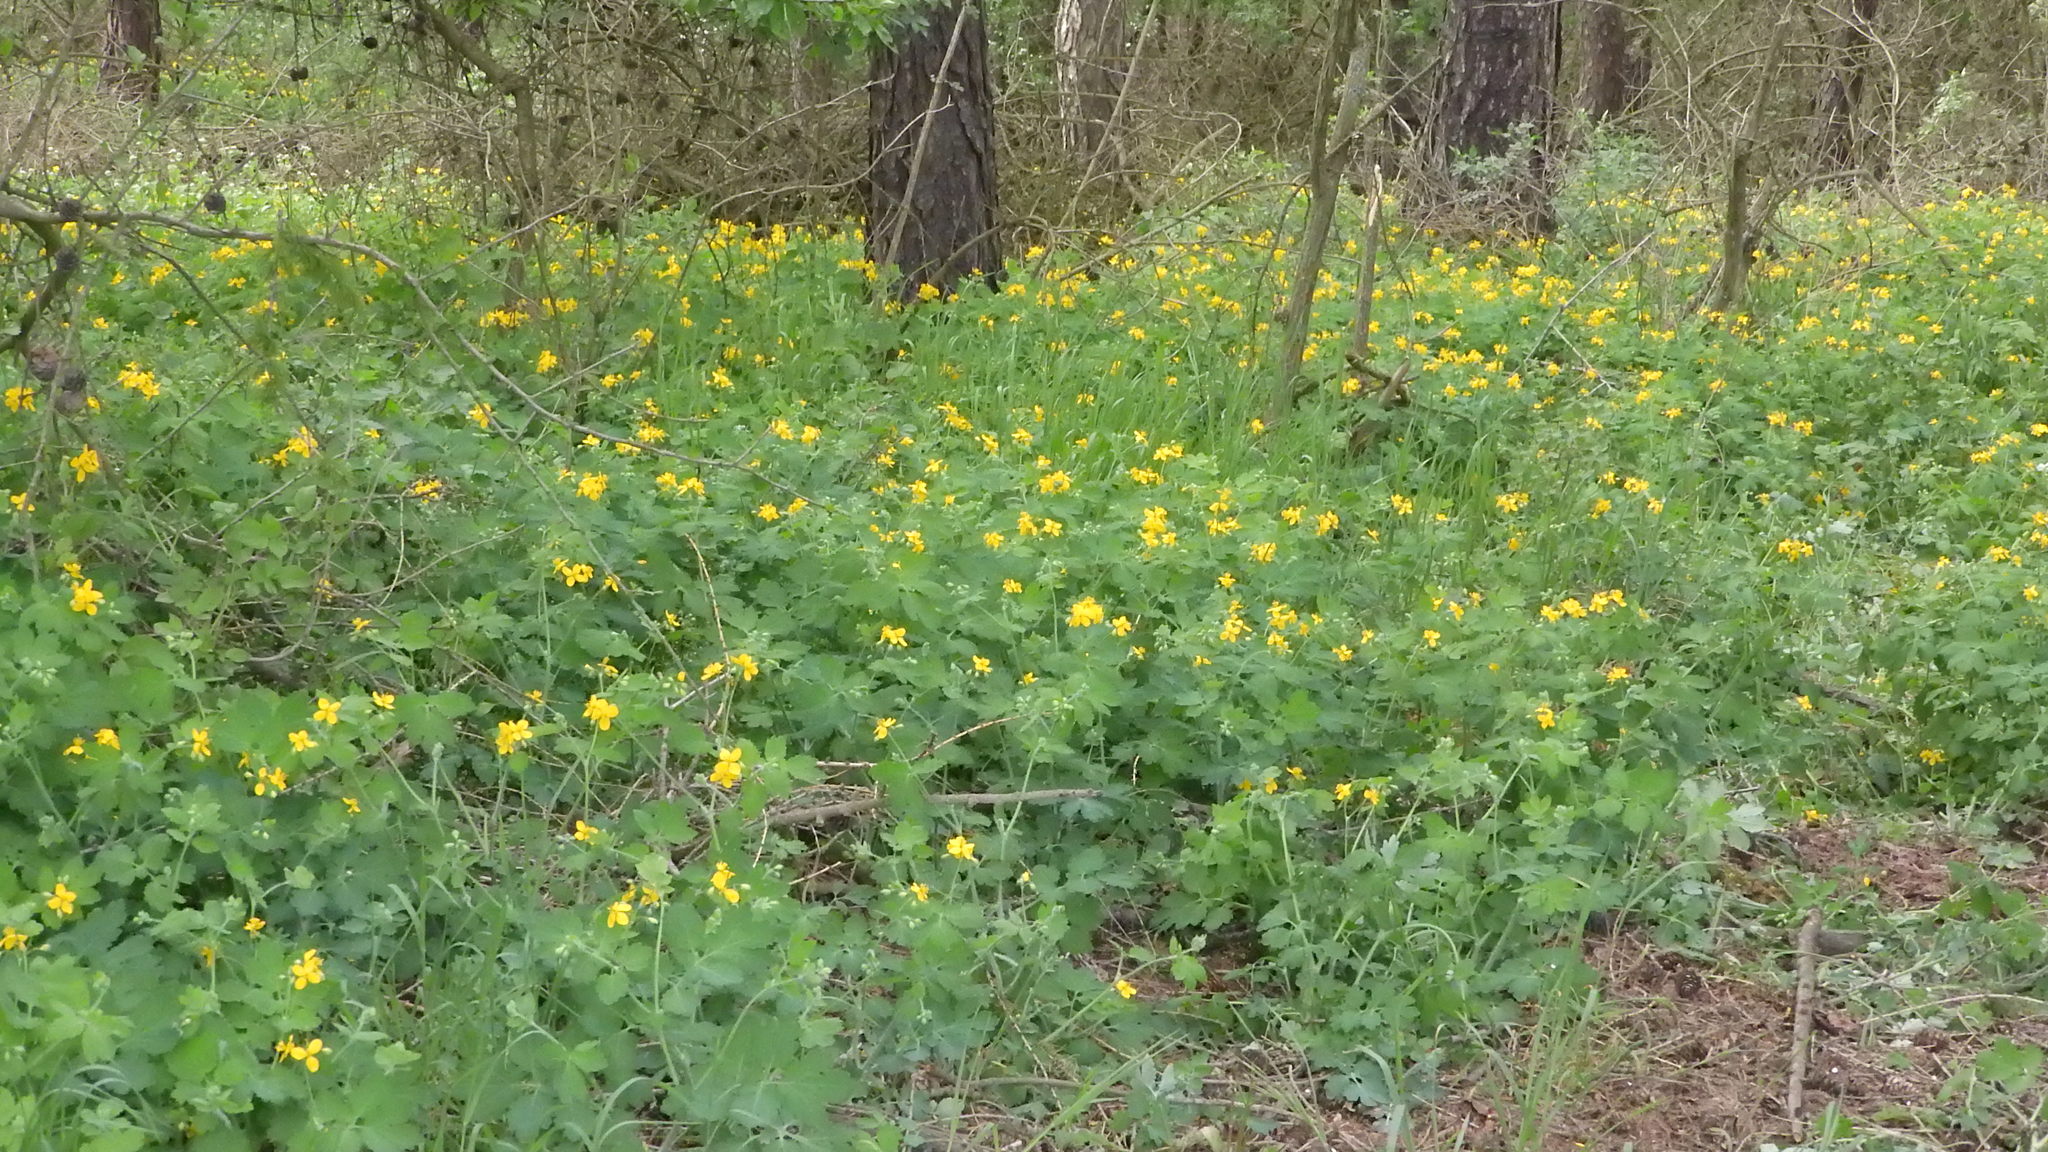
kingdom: Plantae
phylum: Tracheophyta
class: Magnoliopsida
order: Ranunculales
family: Papaveraceae
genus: Chelidonium
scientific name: Chelidonium majus
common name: Greater celandine
